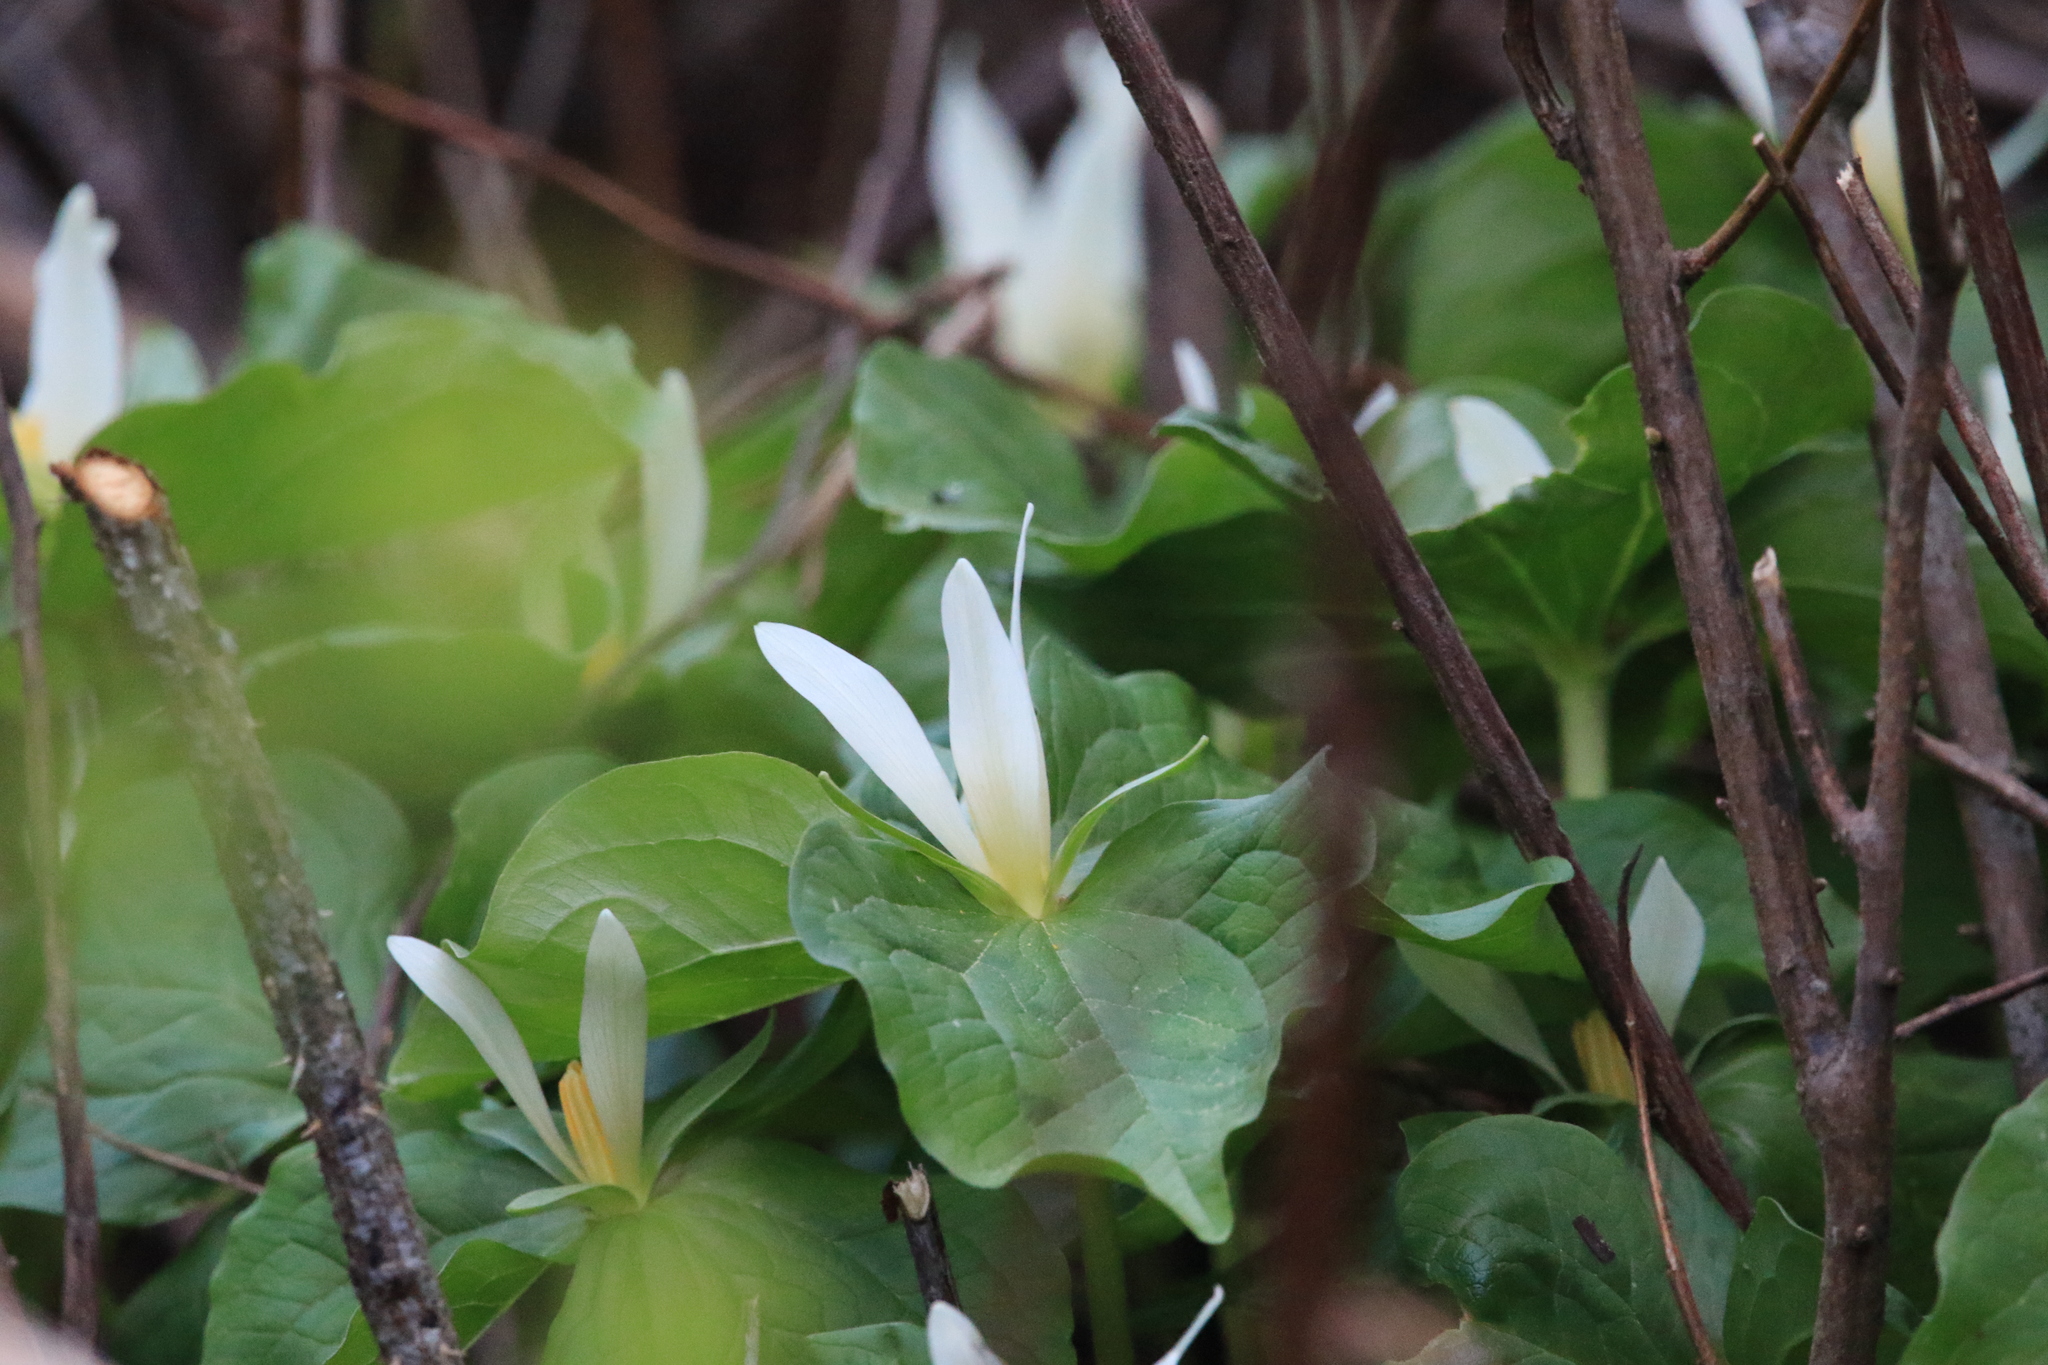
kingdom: Plantae
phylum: Tracheophyta
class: Liliopsida
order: Liliales
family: Melanthiaceae
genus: Trillium
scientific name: Trillium albidum
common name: Freeman's trillium
